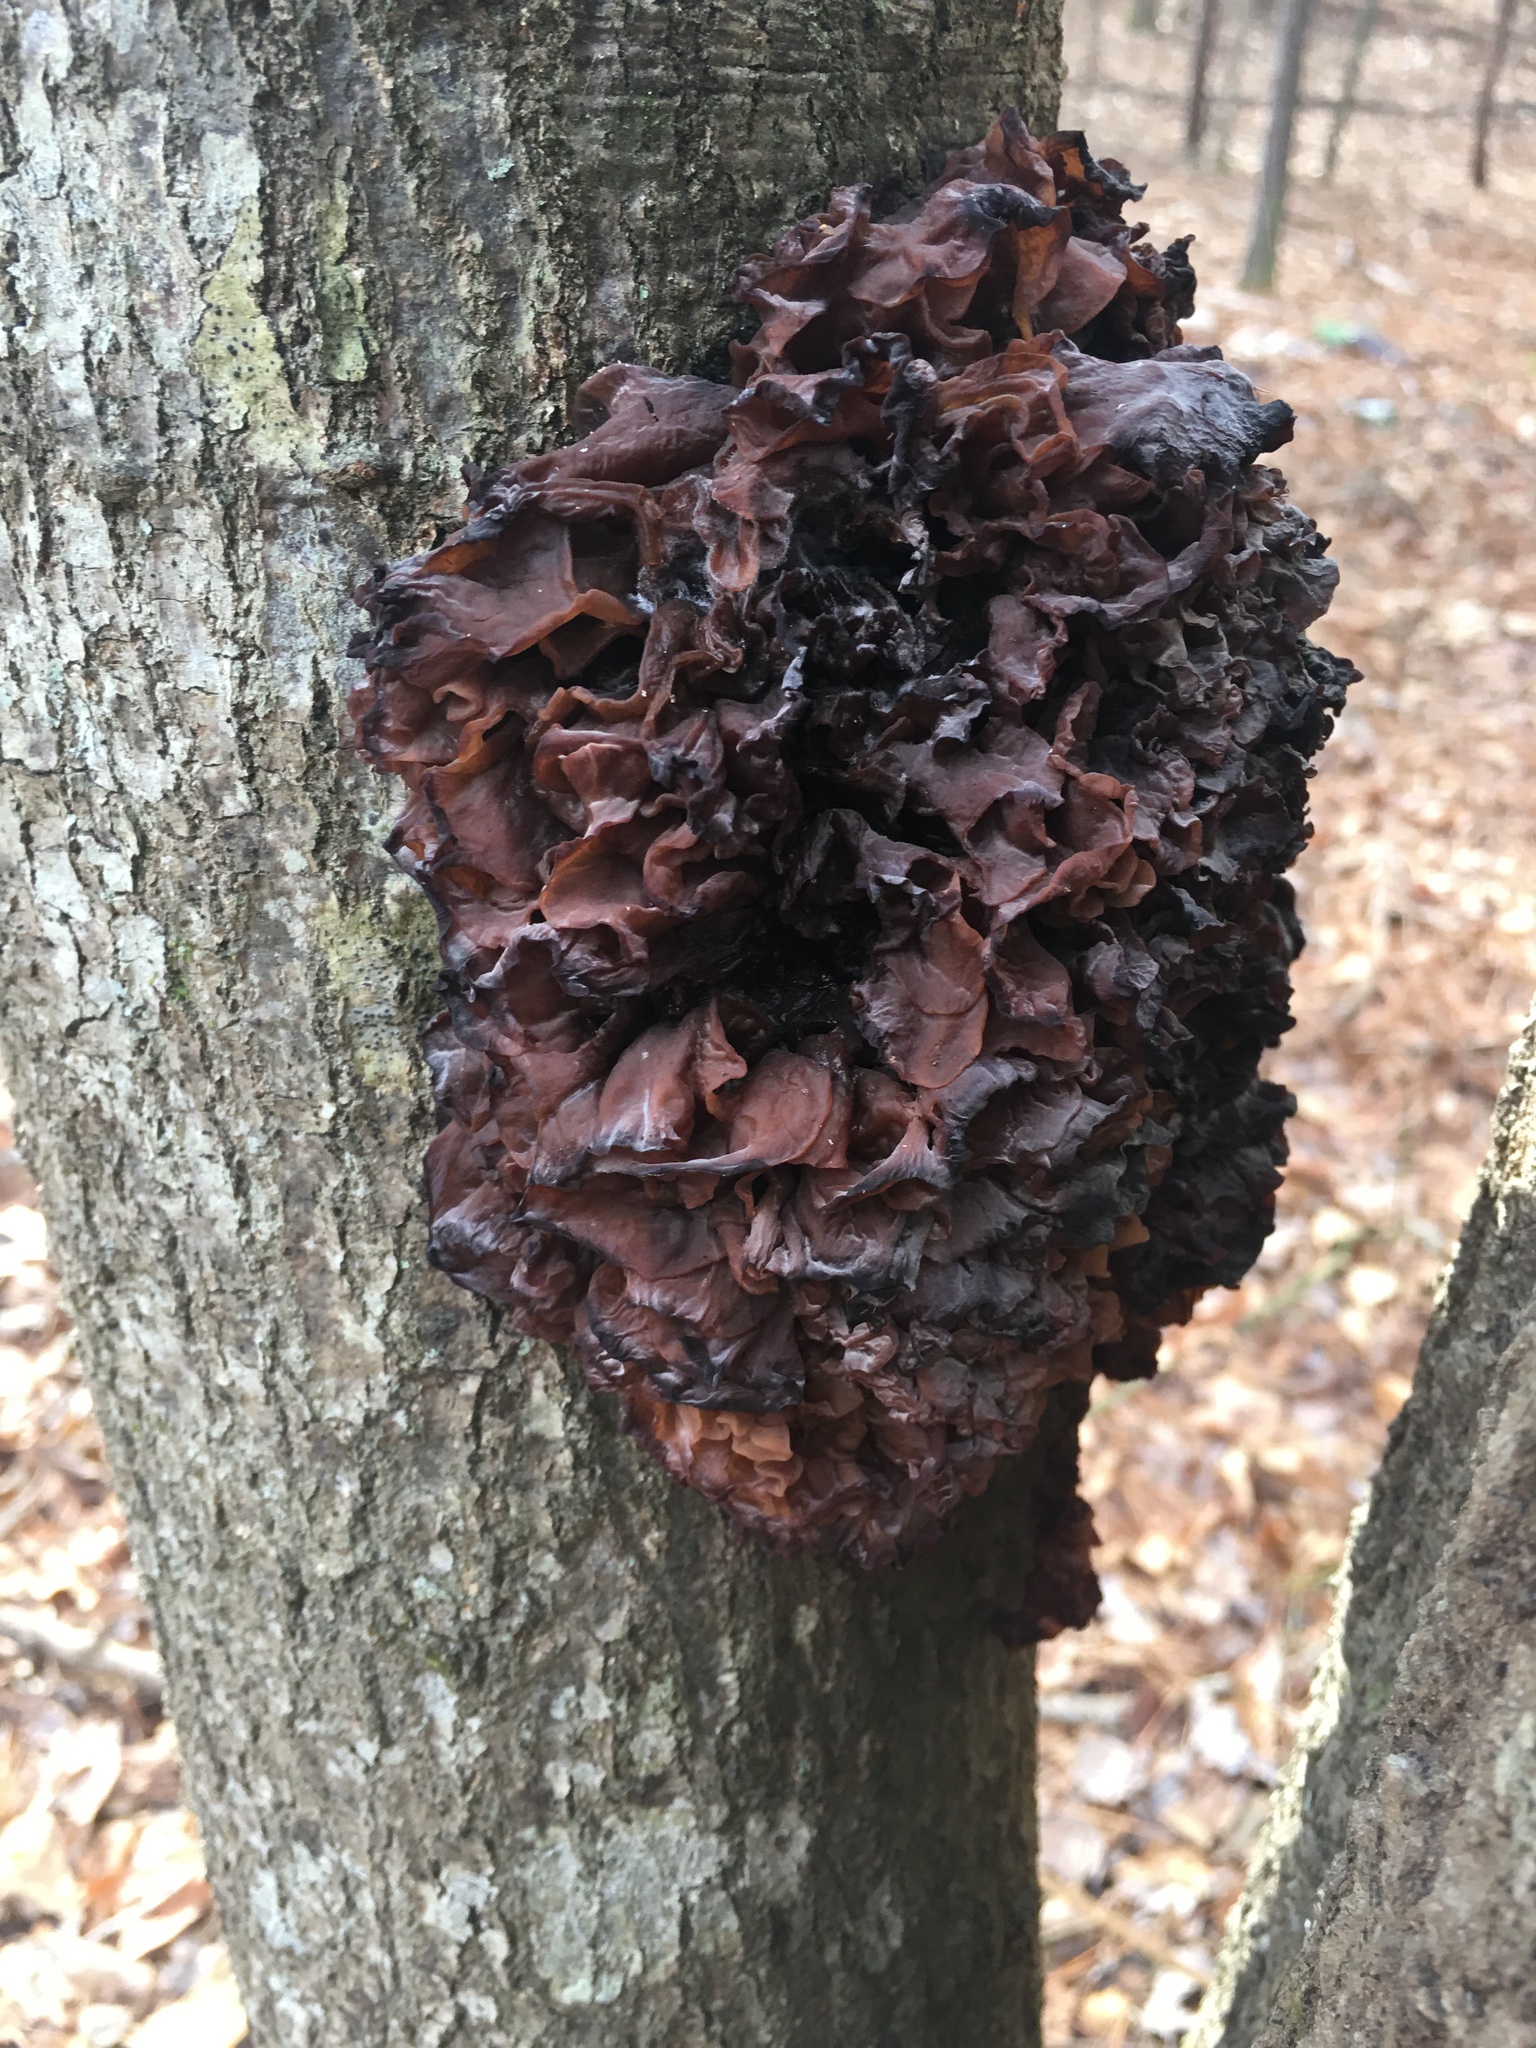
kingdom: Fungi
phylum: Basidiomycota
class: Tremellomycetes
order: Tremellales
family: Tremellaceae
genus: Phaeotremella
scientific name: Phaeotremella foliacea
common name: Leafy brain
